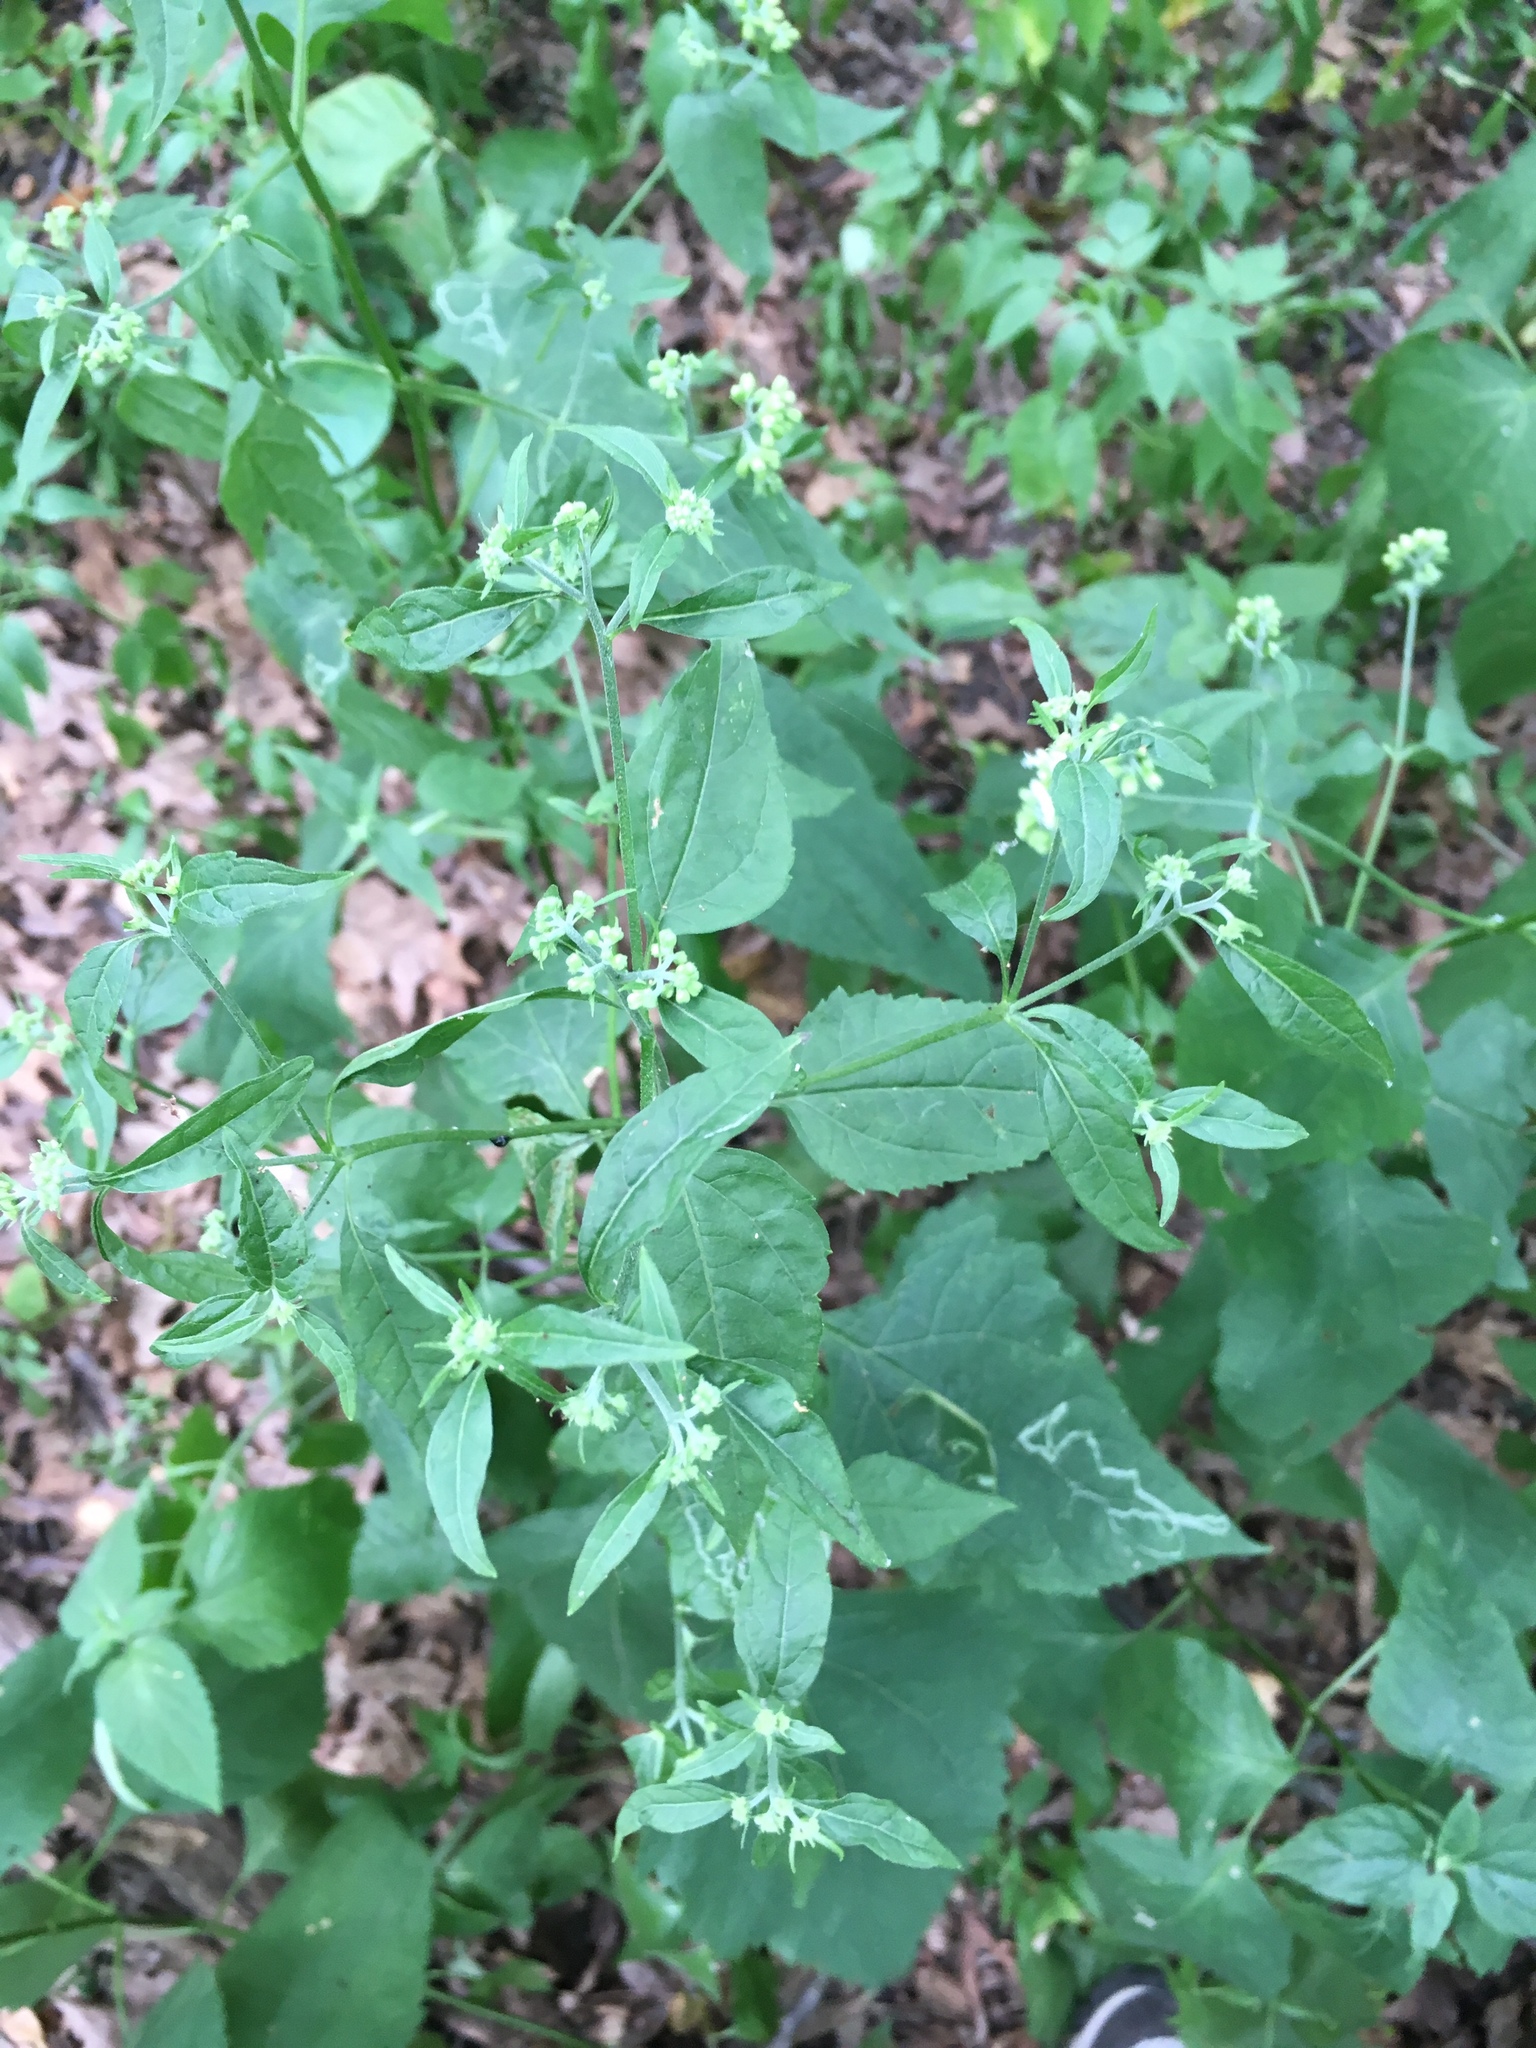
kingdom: Plantae
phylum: Tracheophyta
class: Magnoliopsida
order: Asterales
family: Asteraceae
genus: Ageratina
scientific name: Ageratina altissima
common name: White snakeroot
